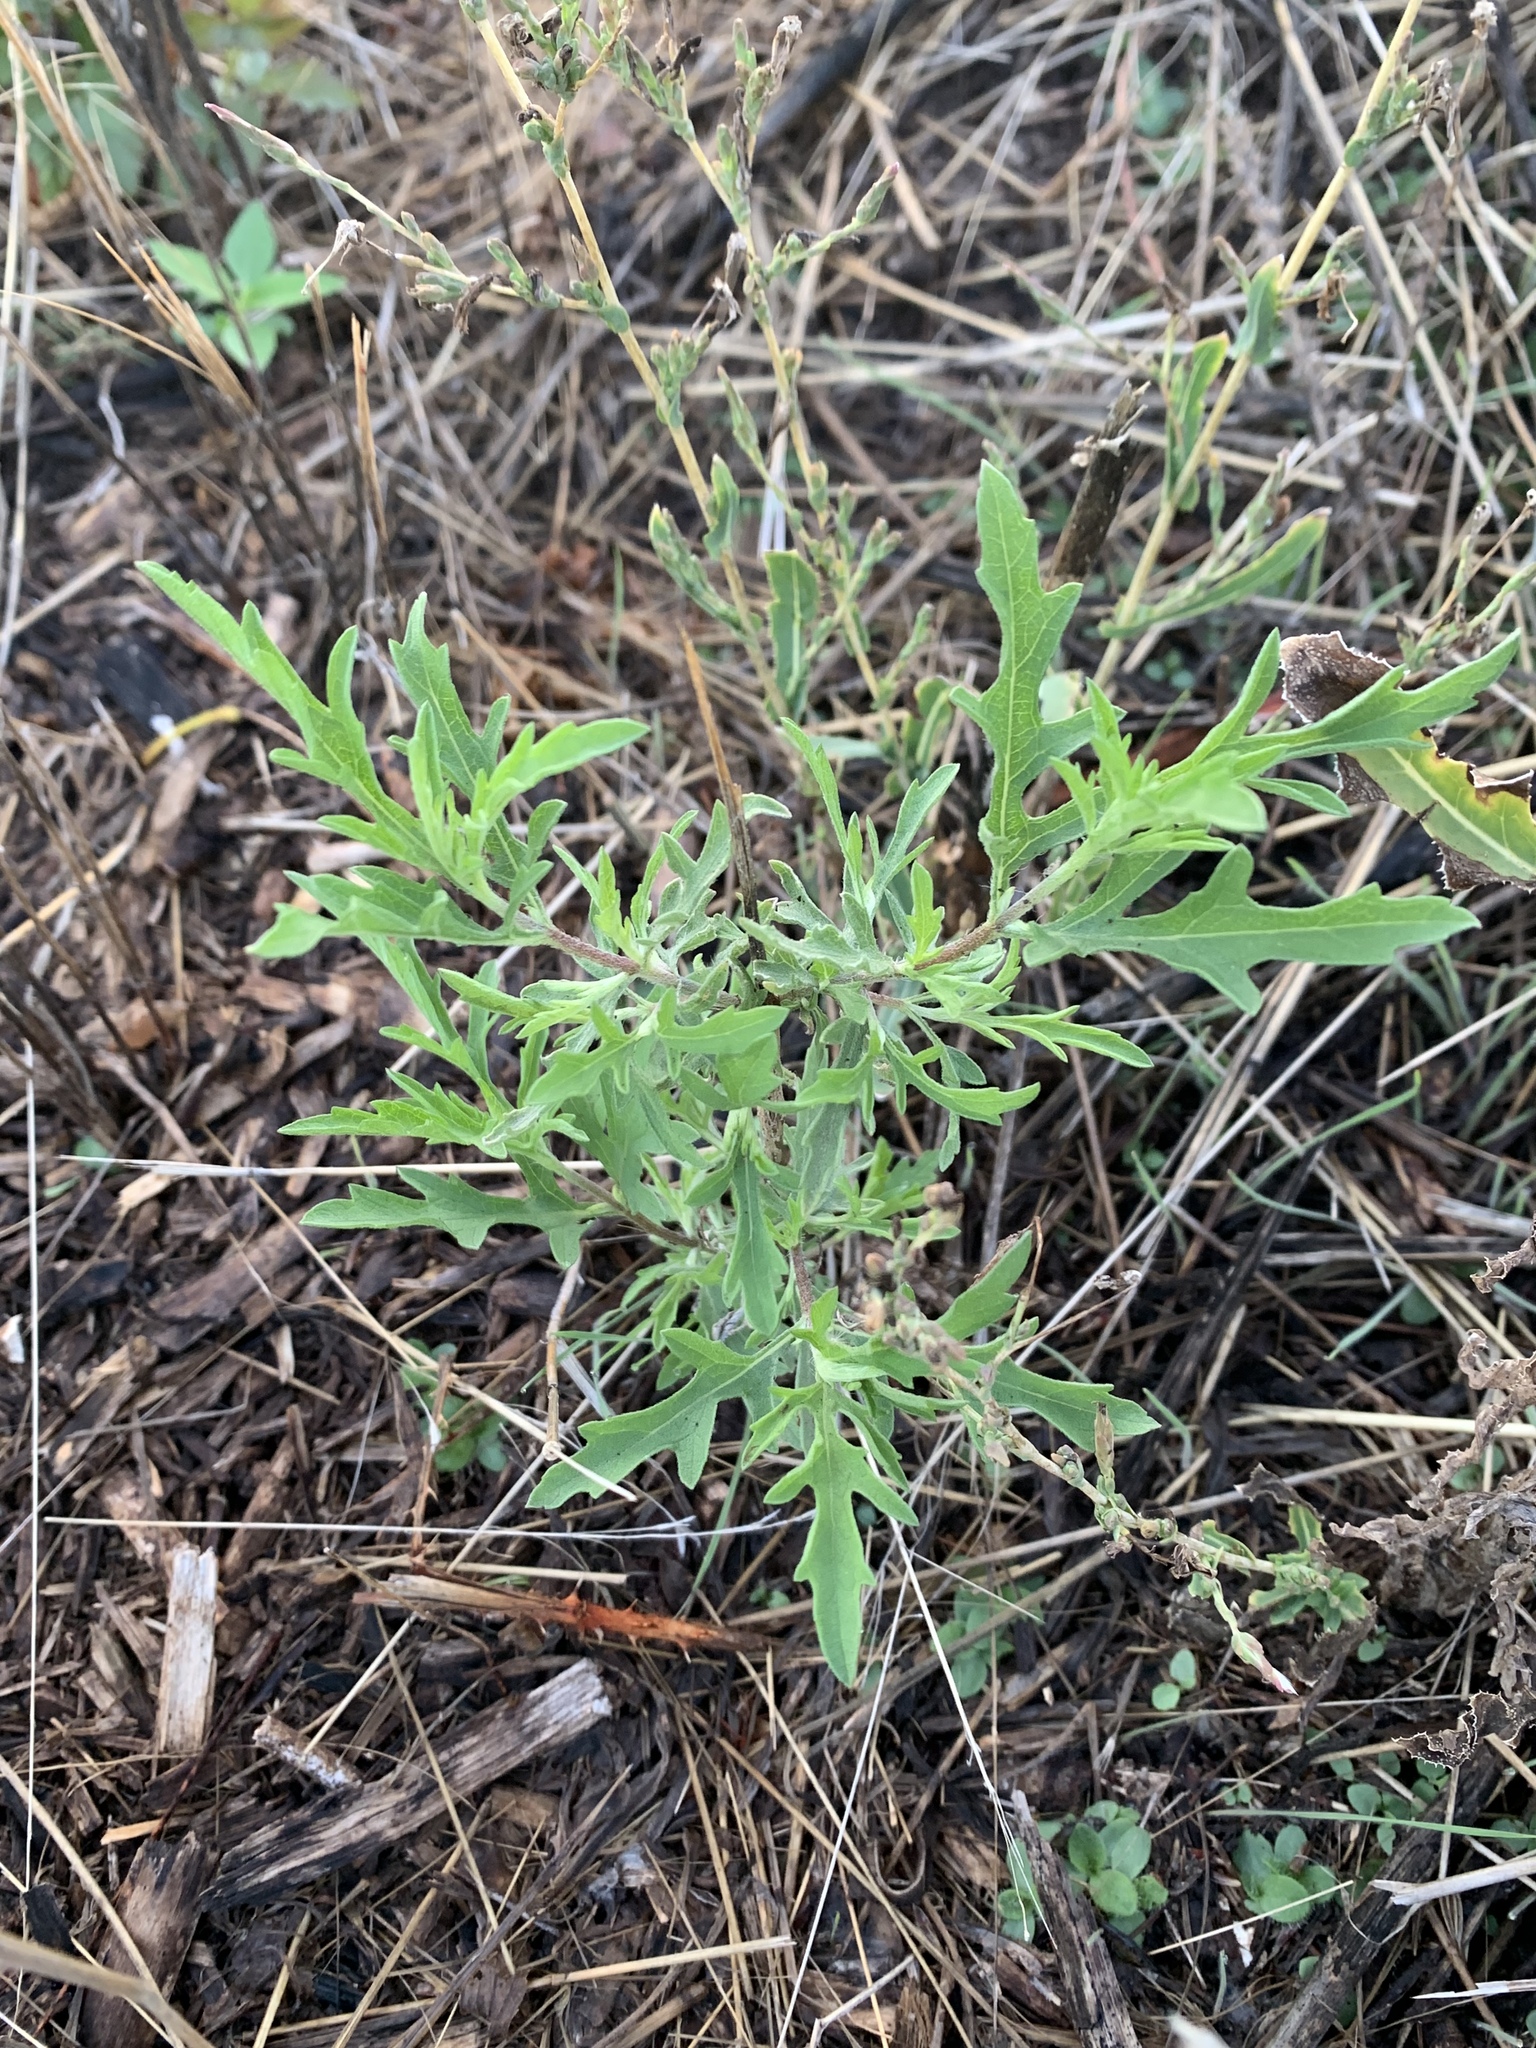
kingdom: Plantae
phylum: Tracheophyta
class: Magnoliopsida
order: Asterales
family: Asteraceae
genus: Ambrosia
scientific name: Ambrosia psilostachya
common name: Perennial ragweed
